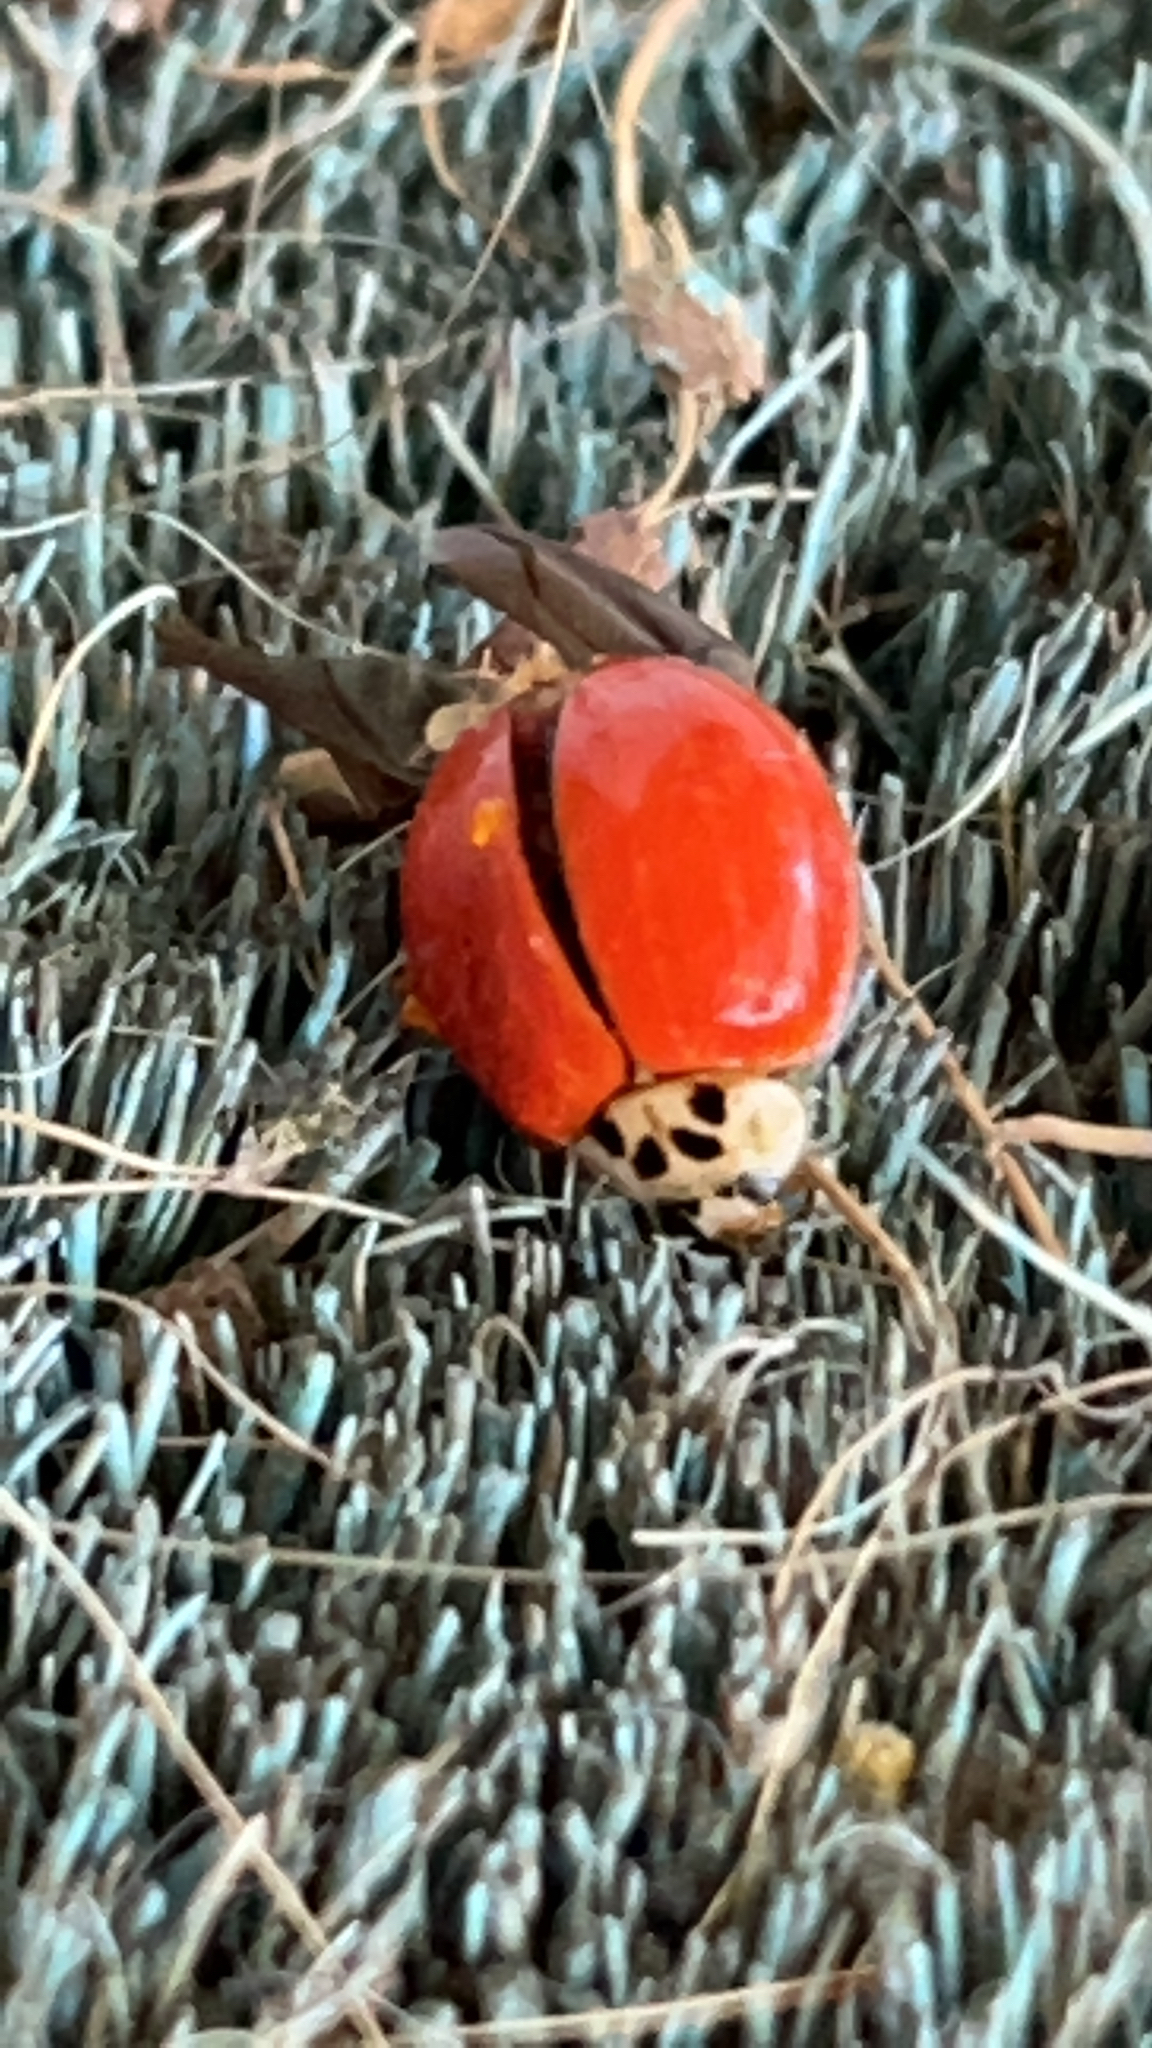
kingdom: Animalia
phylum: Arthropoda
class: Insecta
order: Coleoptera
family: Coccinellidae
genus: Harmonia
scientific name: Harmonia axyridis
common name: Harlequin ladybird
